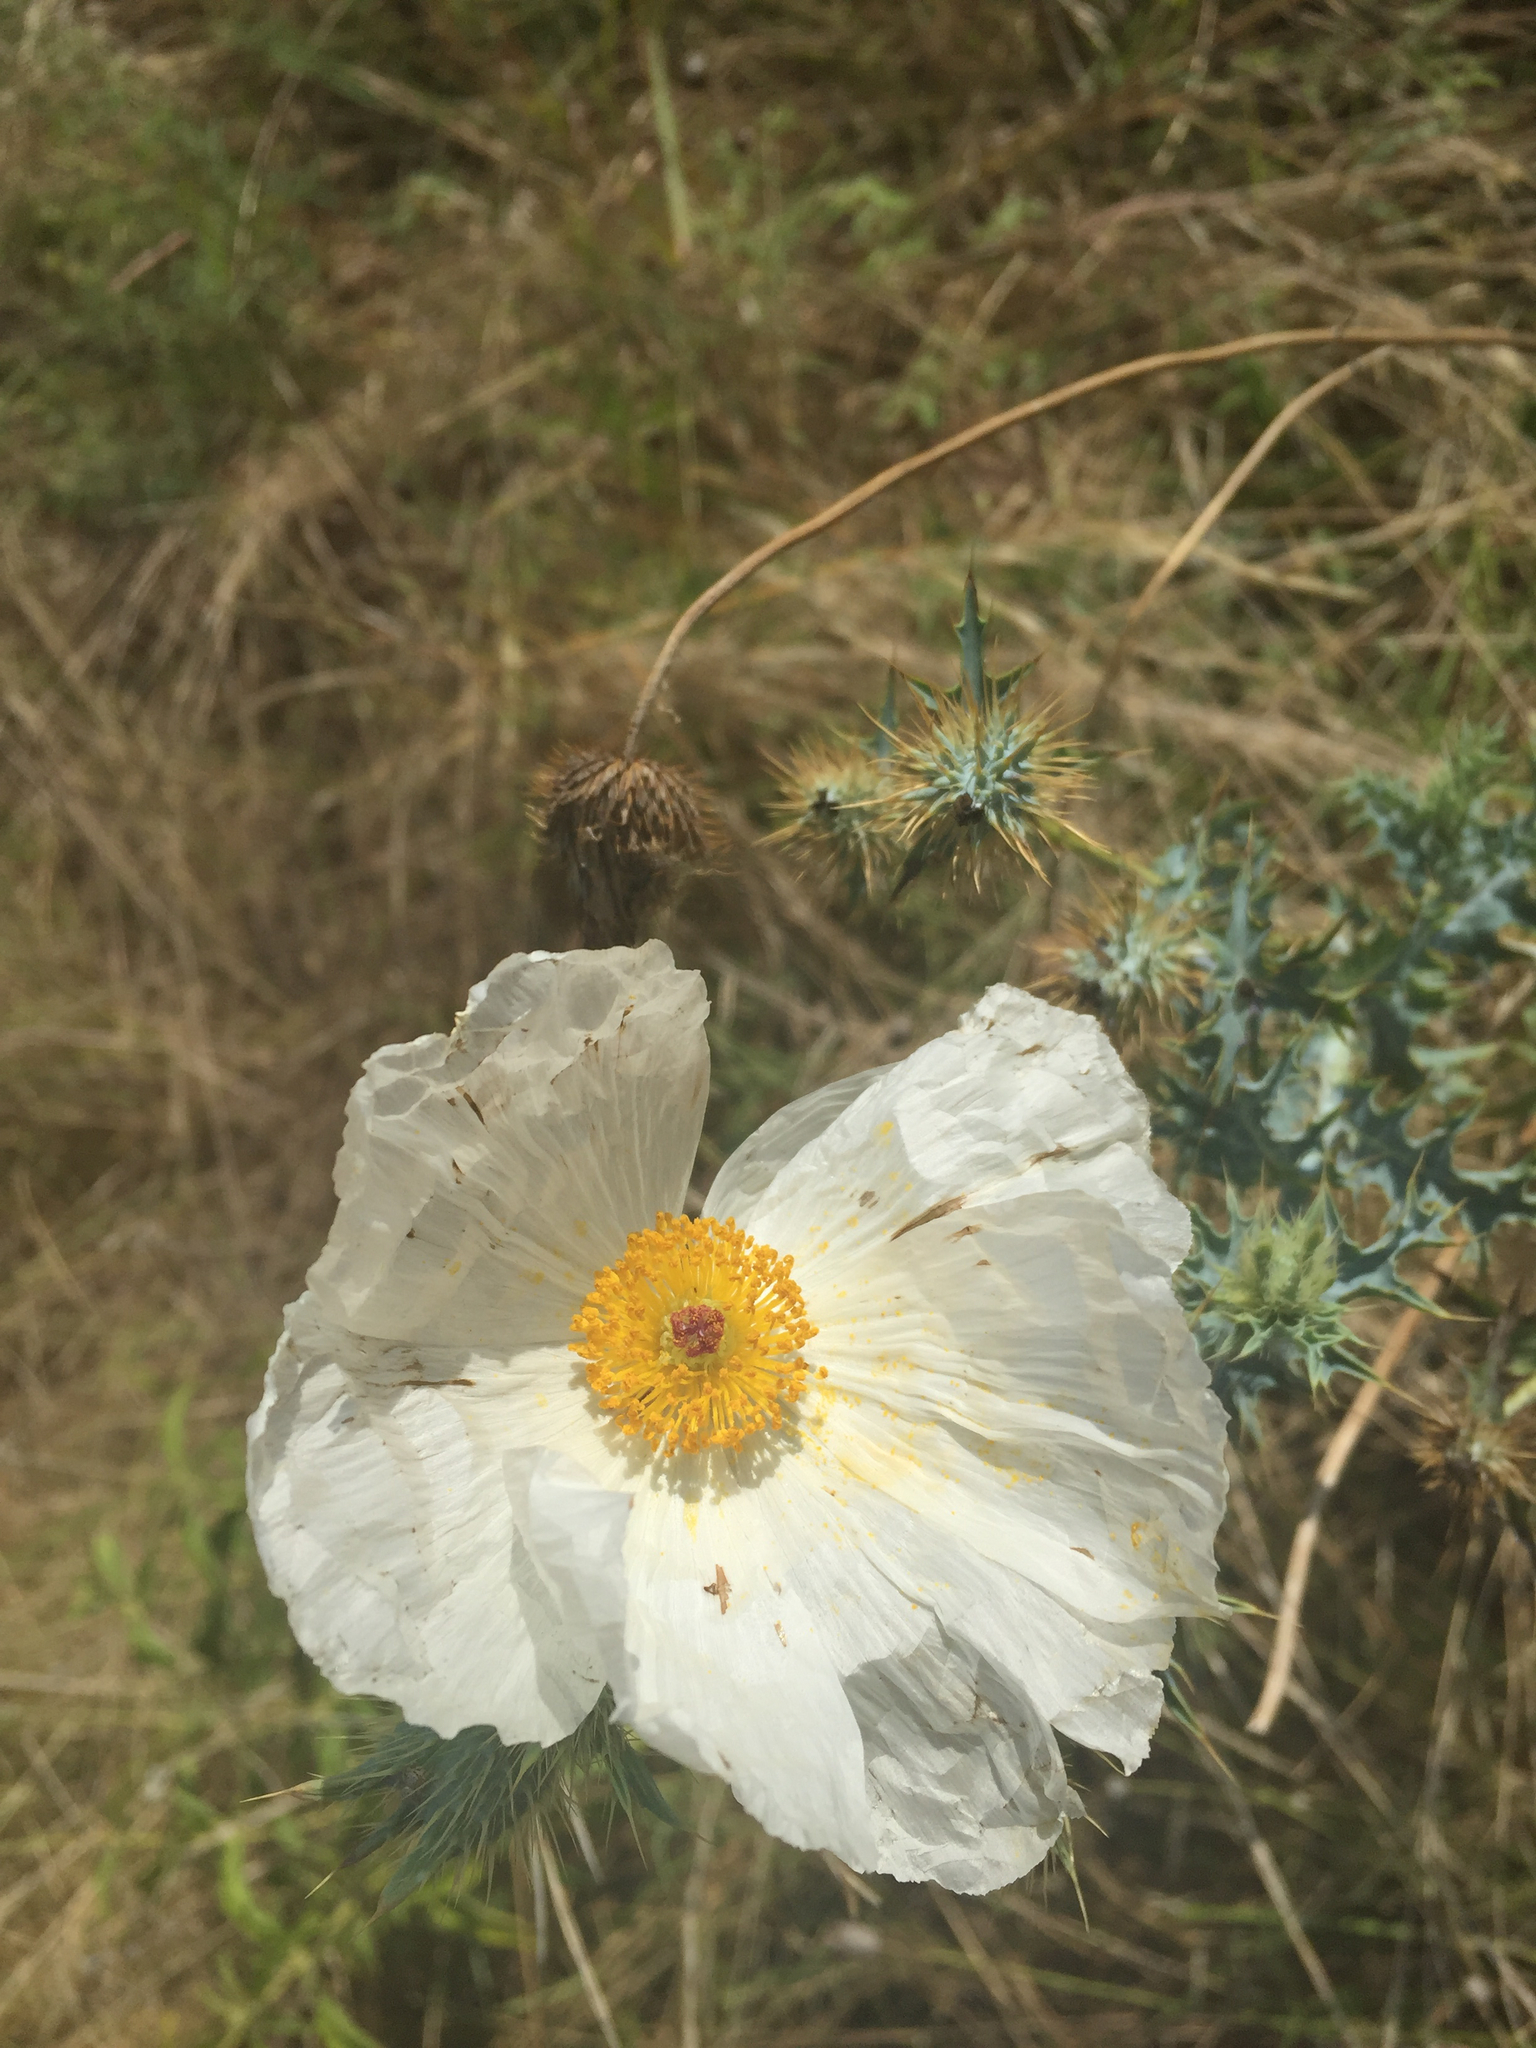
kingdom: Plantae
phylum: Tracheophyta
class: Magnoliopsida
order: Ranunculales
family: Papaveraceae
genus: Argemone
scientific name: Argemone albiflora
